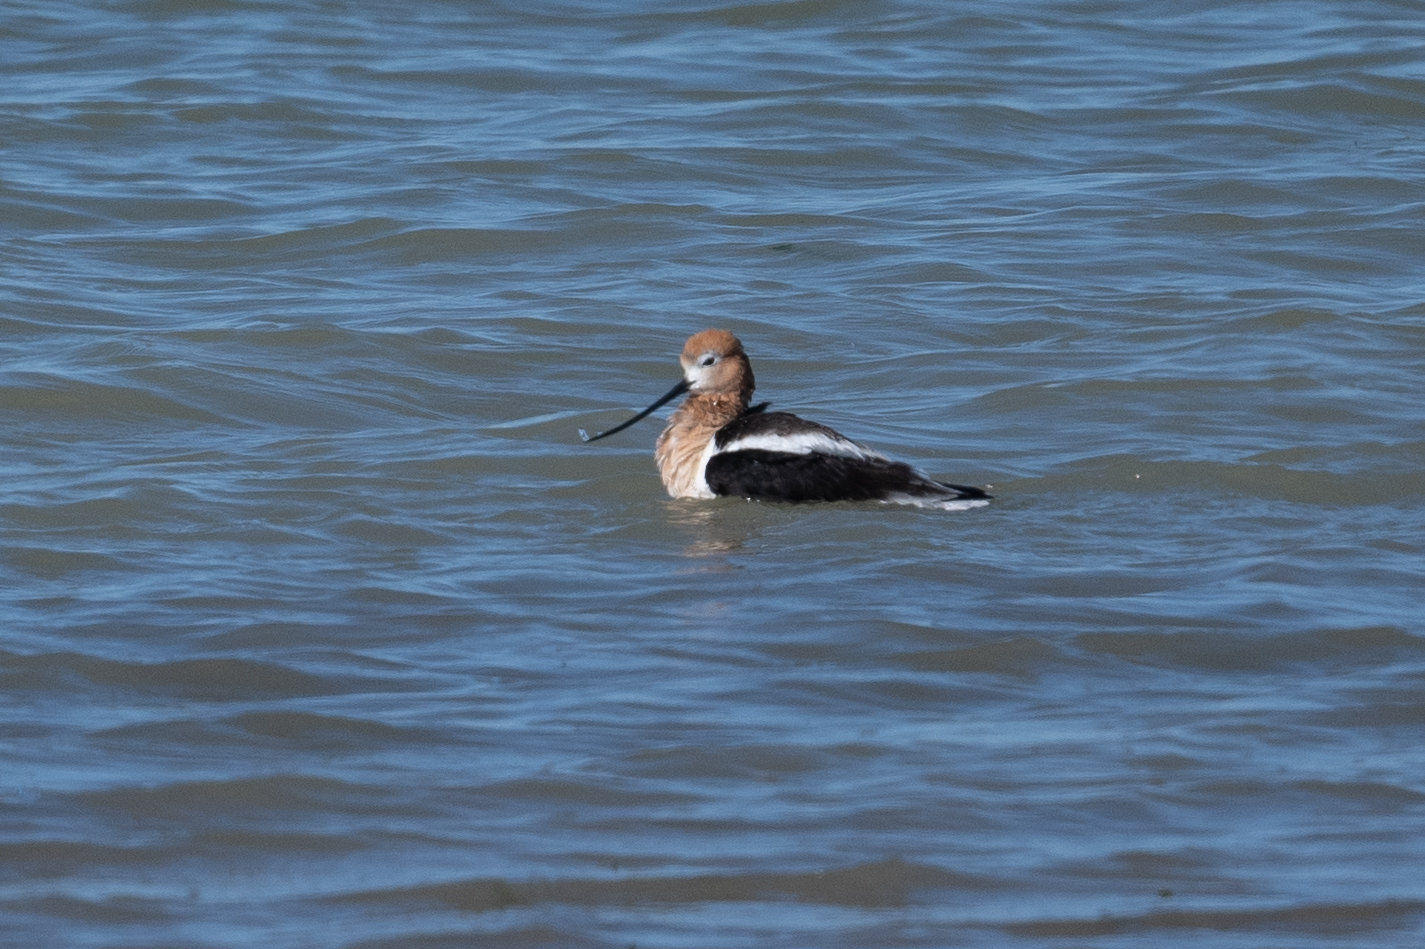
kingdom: Animalia
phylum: Chordata
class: Aves
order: Charadriiformes
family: Recurvirostridae
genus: Recurvirostra
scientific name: Recurvirostra americana
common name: American avocet
